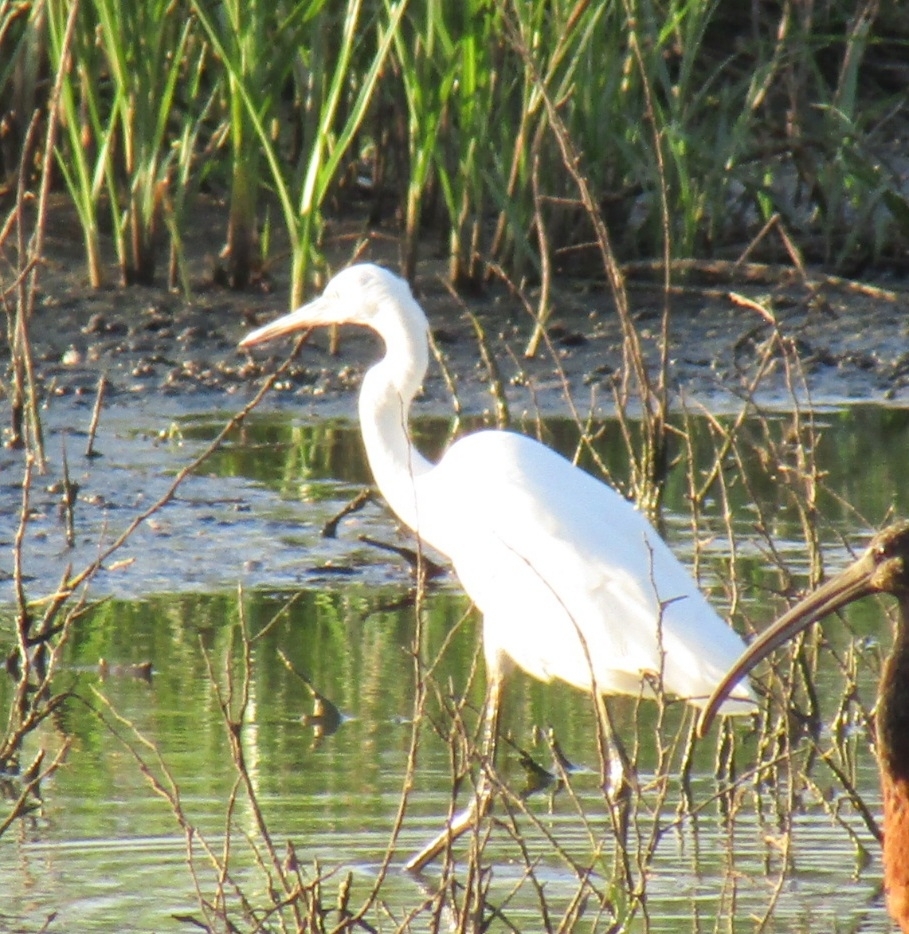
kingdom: Animalia
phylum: Chordata
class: Aves
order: Pelecaniformes
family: Ardeidae
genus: Ardea
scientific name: Ardea alba
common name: Great egret
